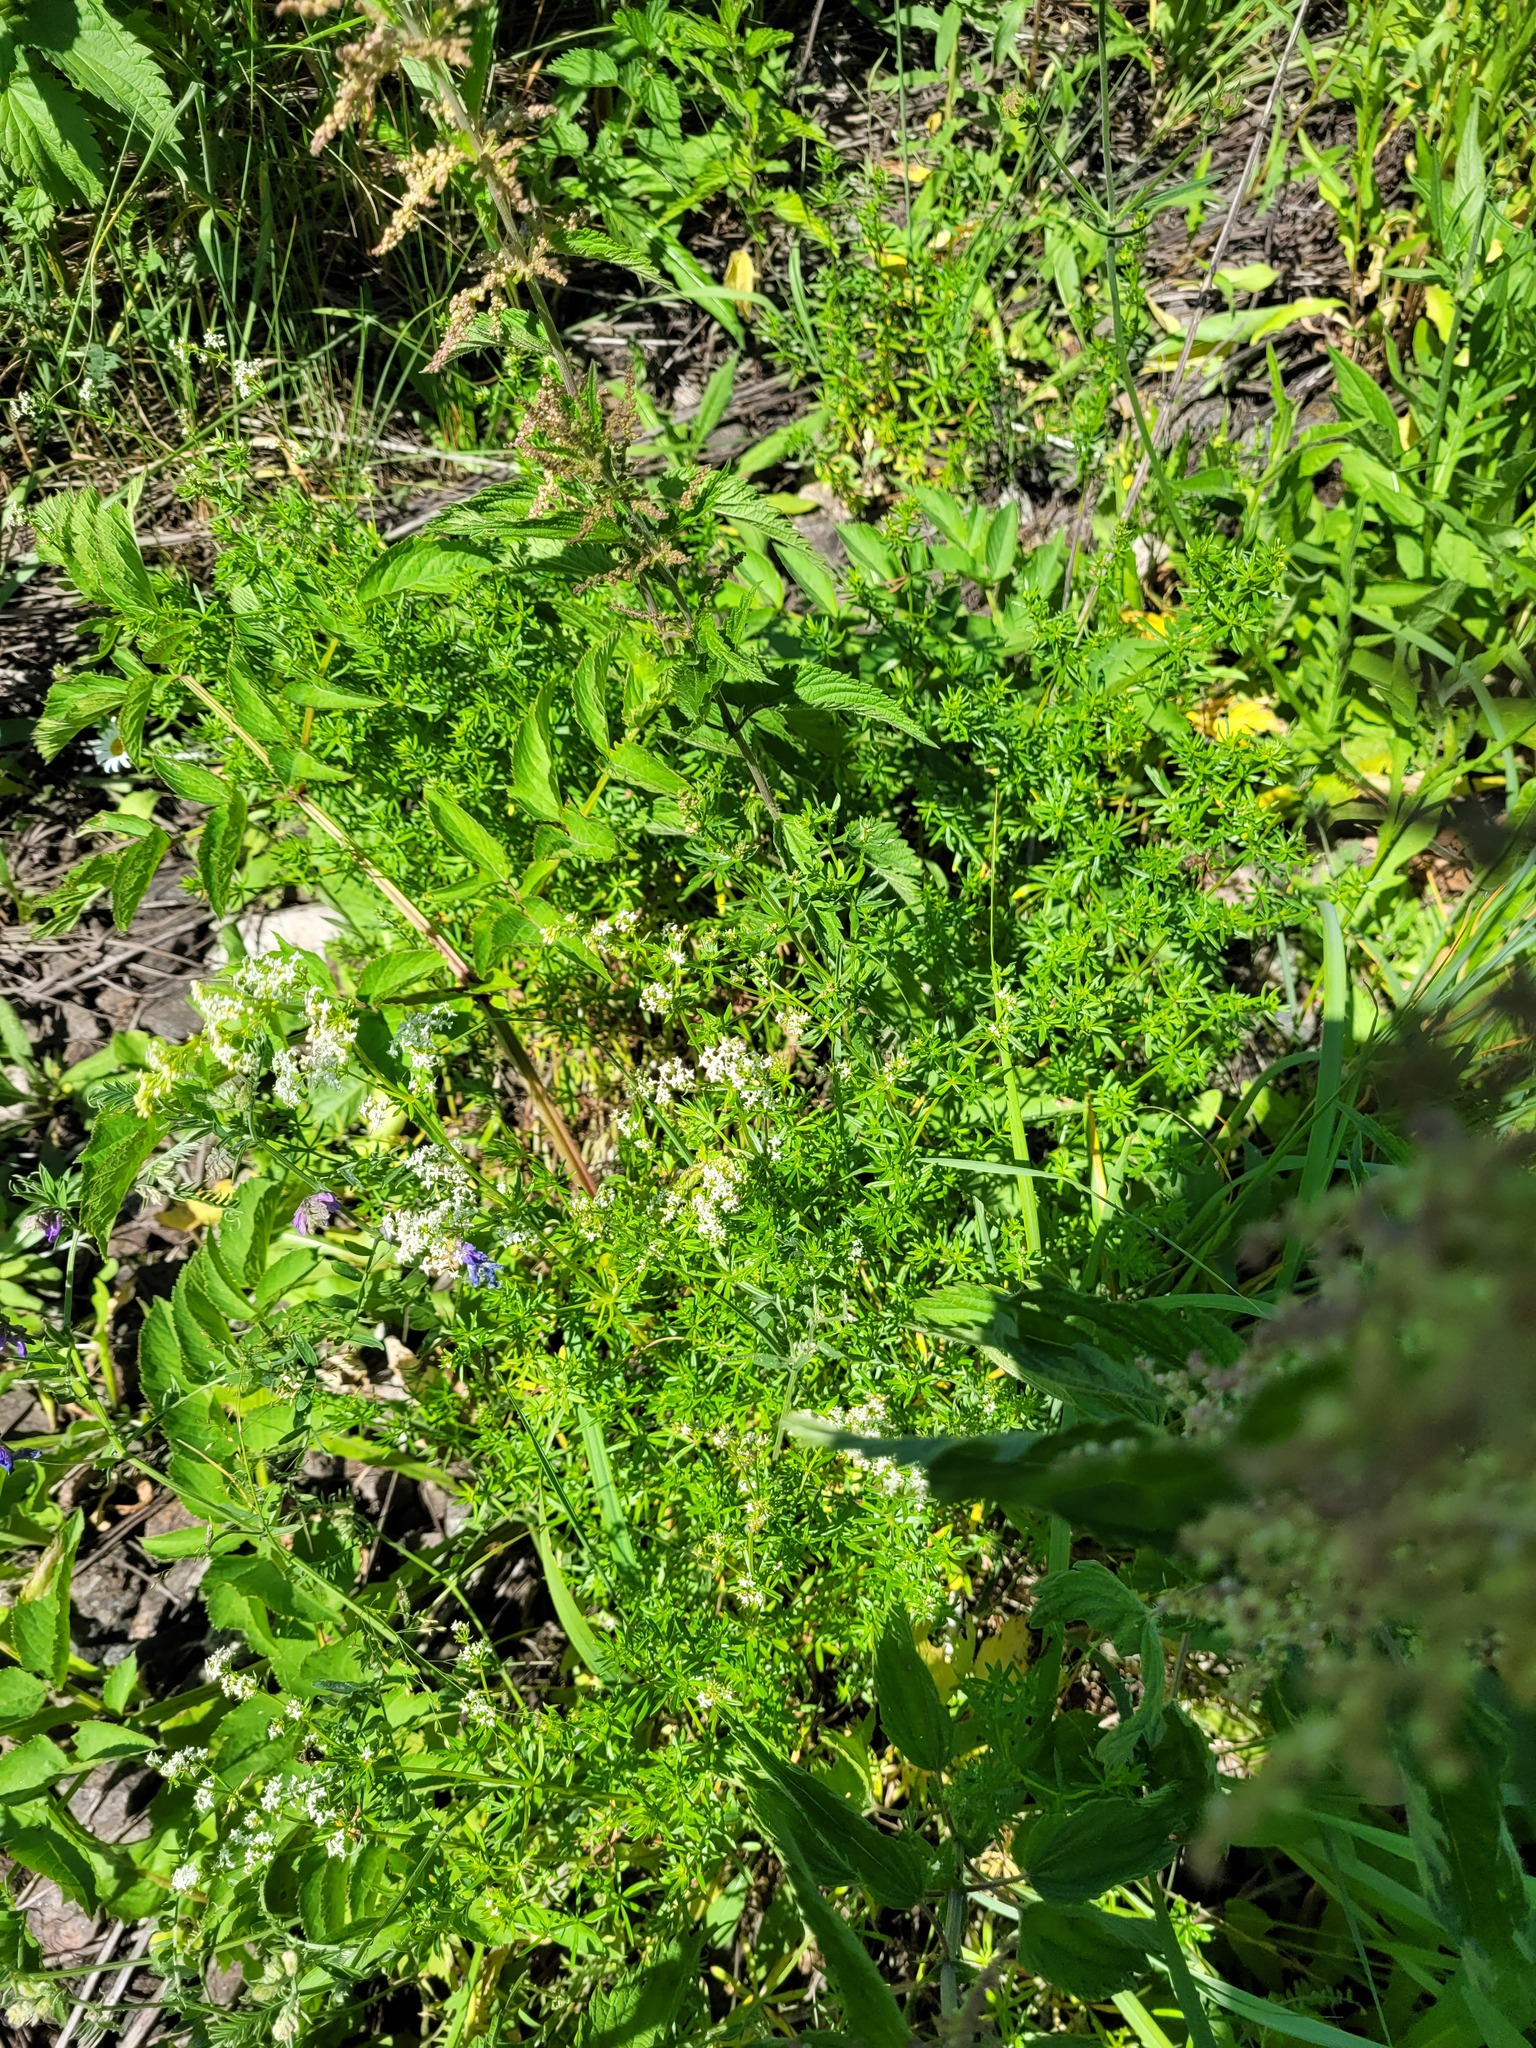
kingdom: Plantae
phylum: Tracheophyta
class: Magnoliopsida
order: Gentianales
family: Rubiaceae
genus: Galium
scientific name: Galium mollugo
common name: Hedge bedstraw
